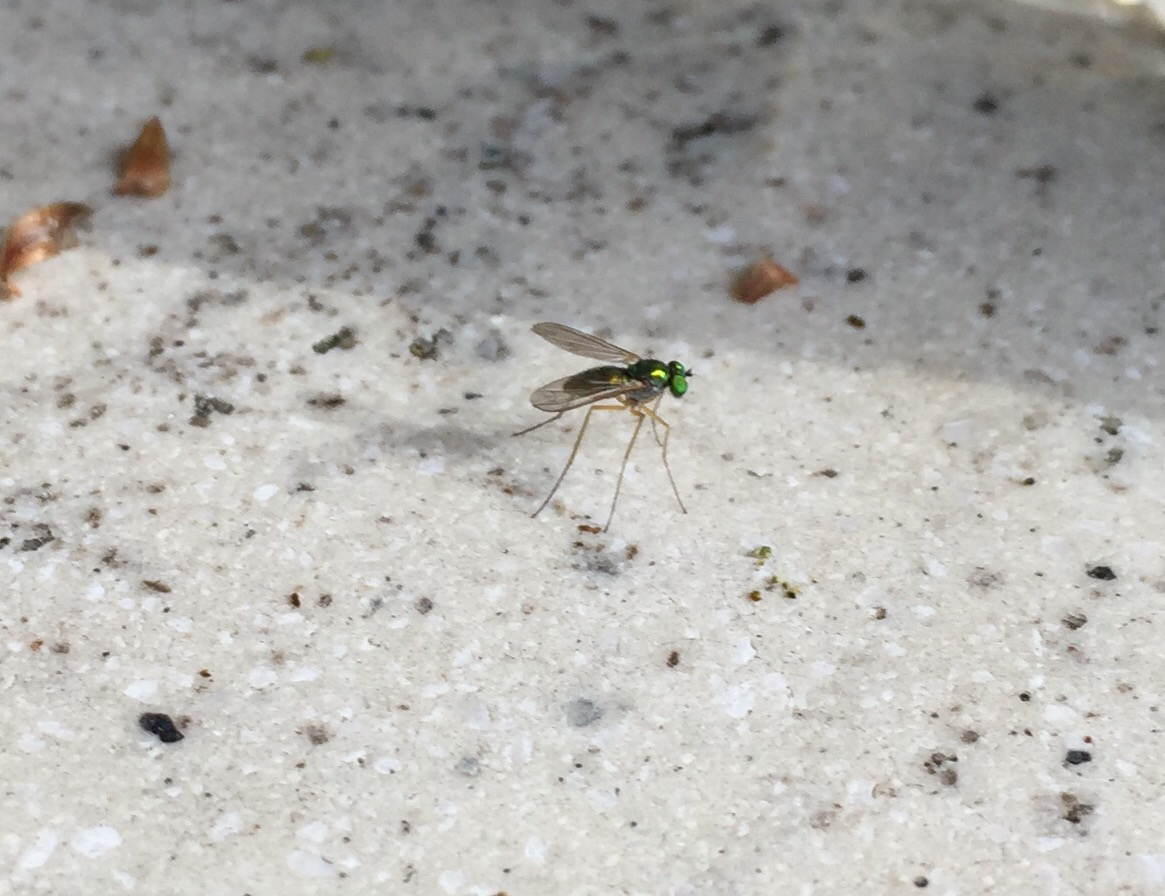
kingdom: Animalia
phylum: Arthropoda
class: Insecta
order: Diptera
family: Dolichopodidae
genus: Amblypsilopus
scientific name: Amblypsilopus scintillans
